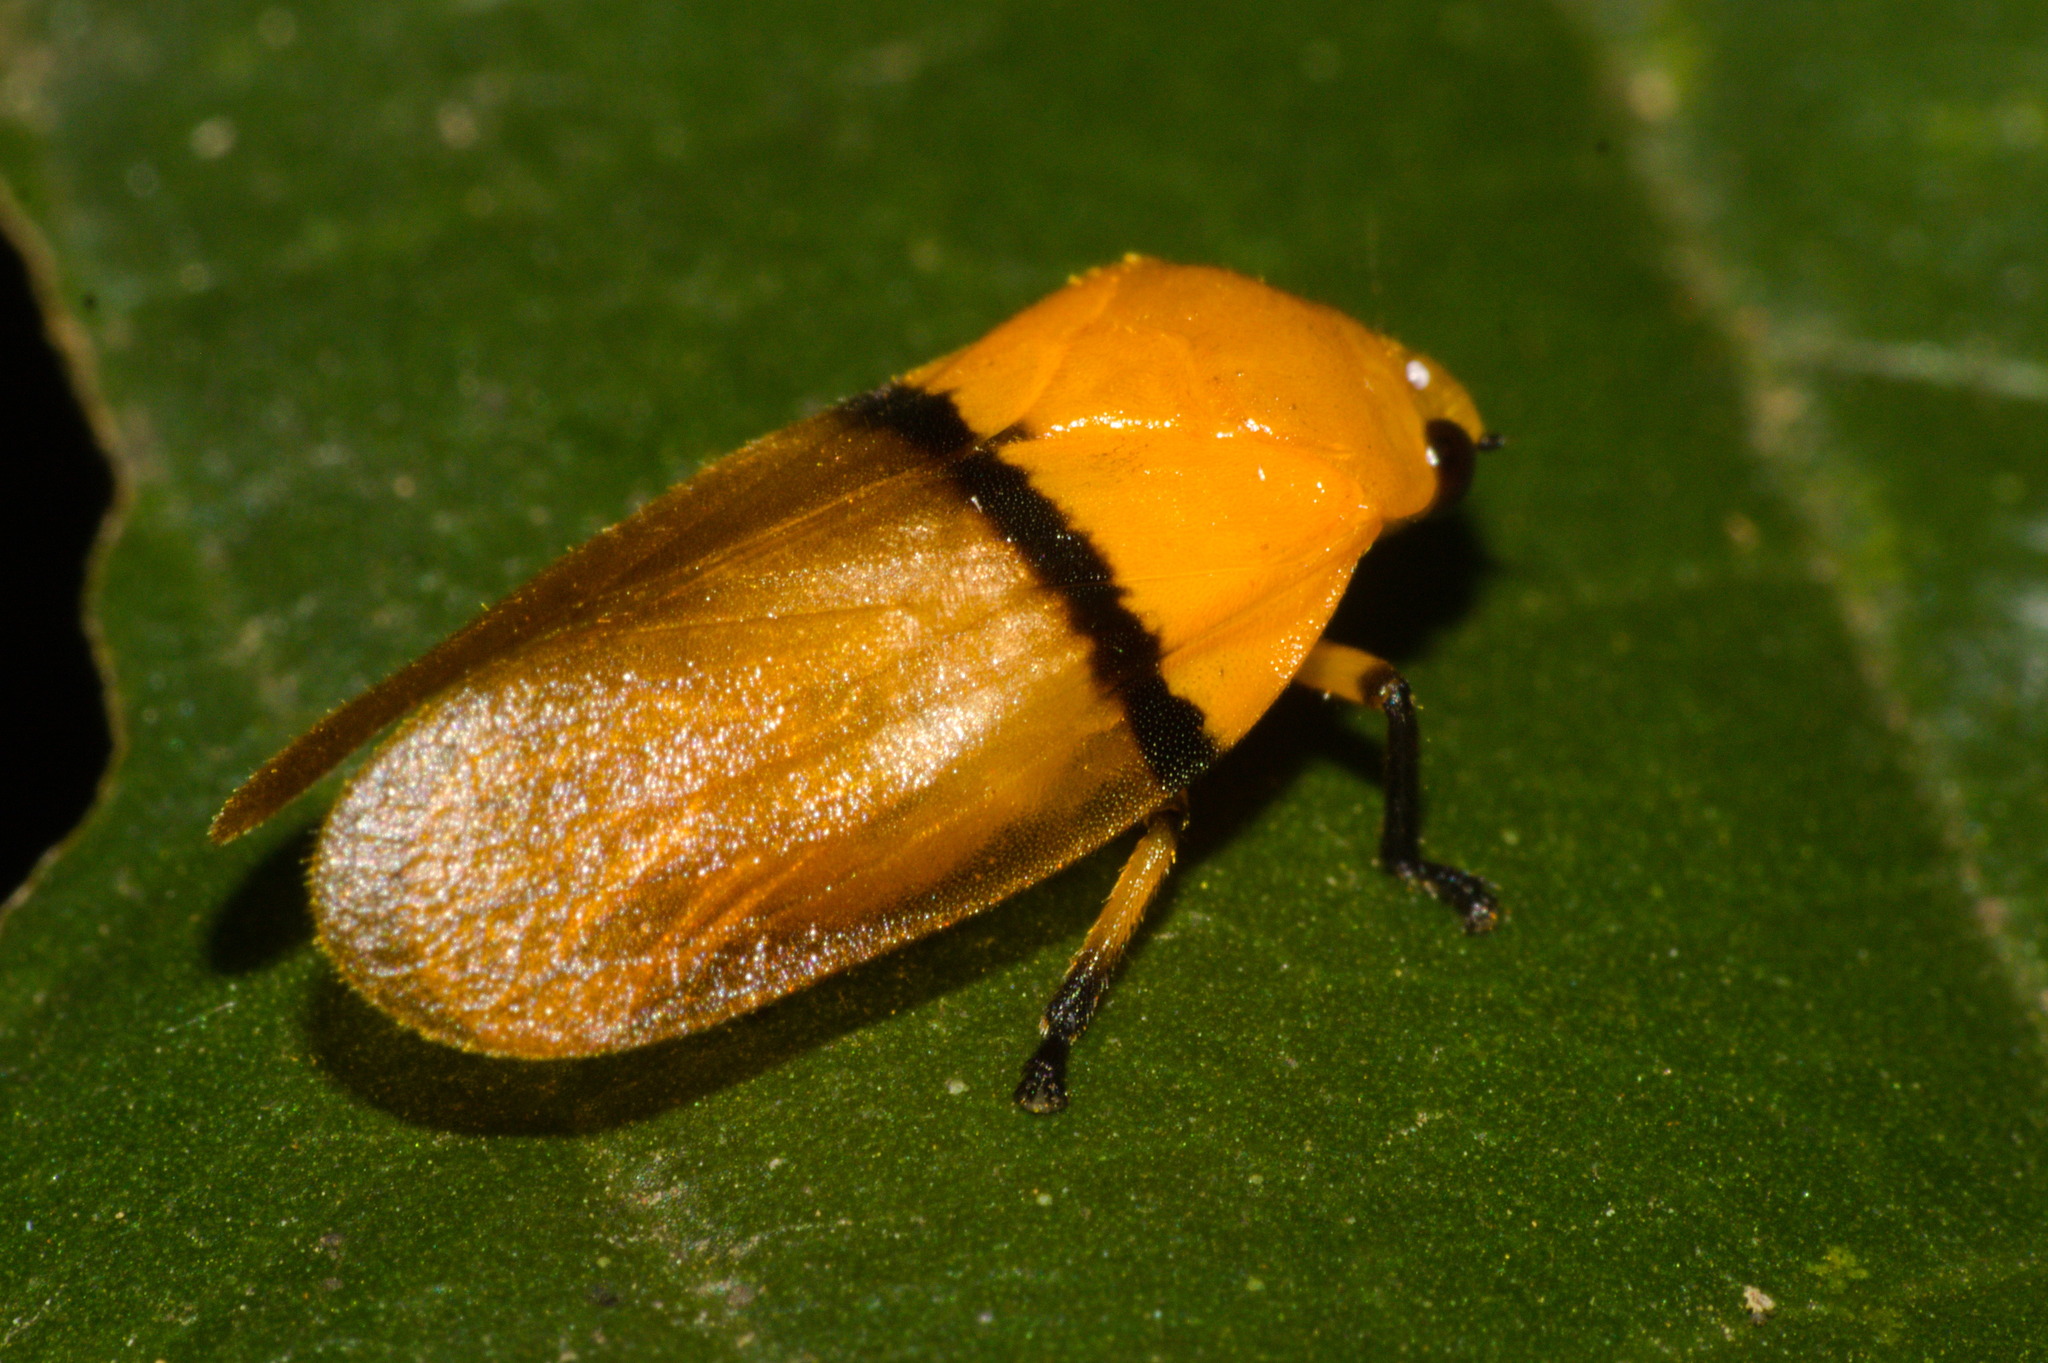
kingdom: Animalia
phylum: Arthropoda
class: Insecta
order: Hemiptera
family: Cercopidae
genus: Monecphora
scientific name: Monecphora cingulata
